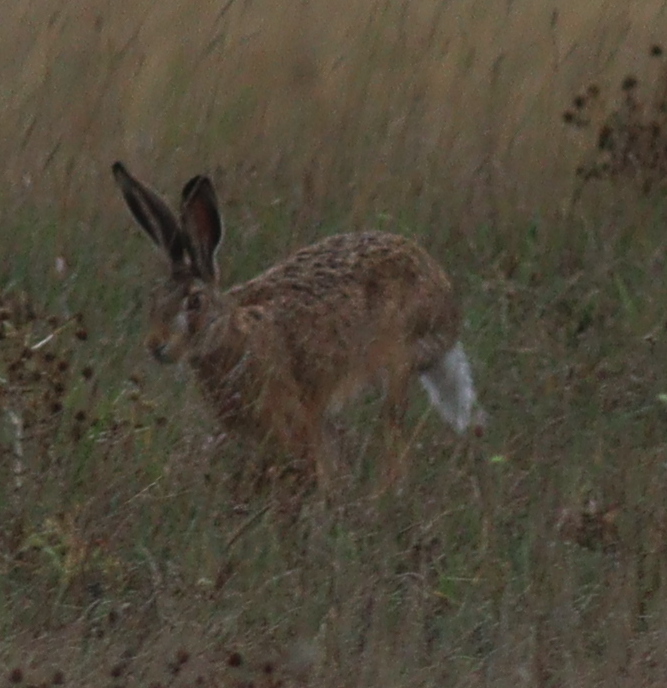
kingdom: Animalia
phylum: Chordata
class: Mammalia
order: Lagomorpha
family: Leporidae
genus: Lepus
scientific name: Lepus europaeus
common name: European hare
